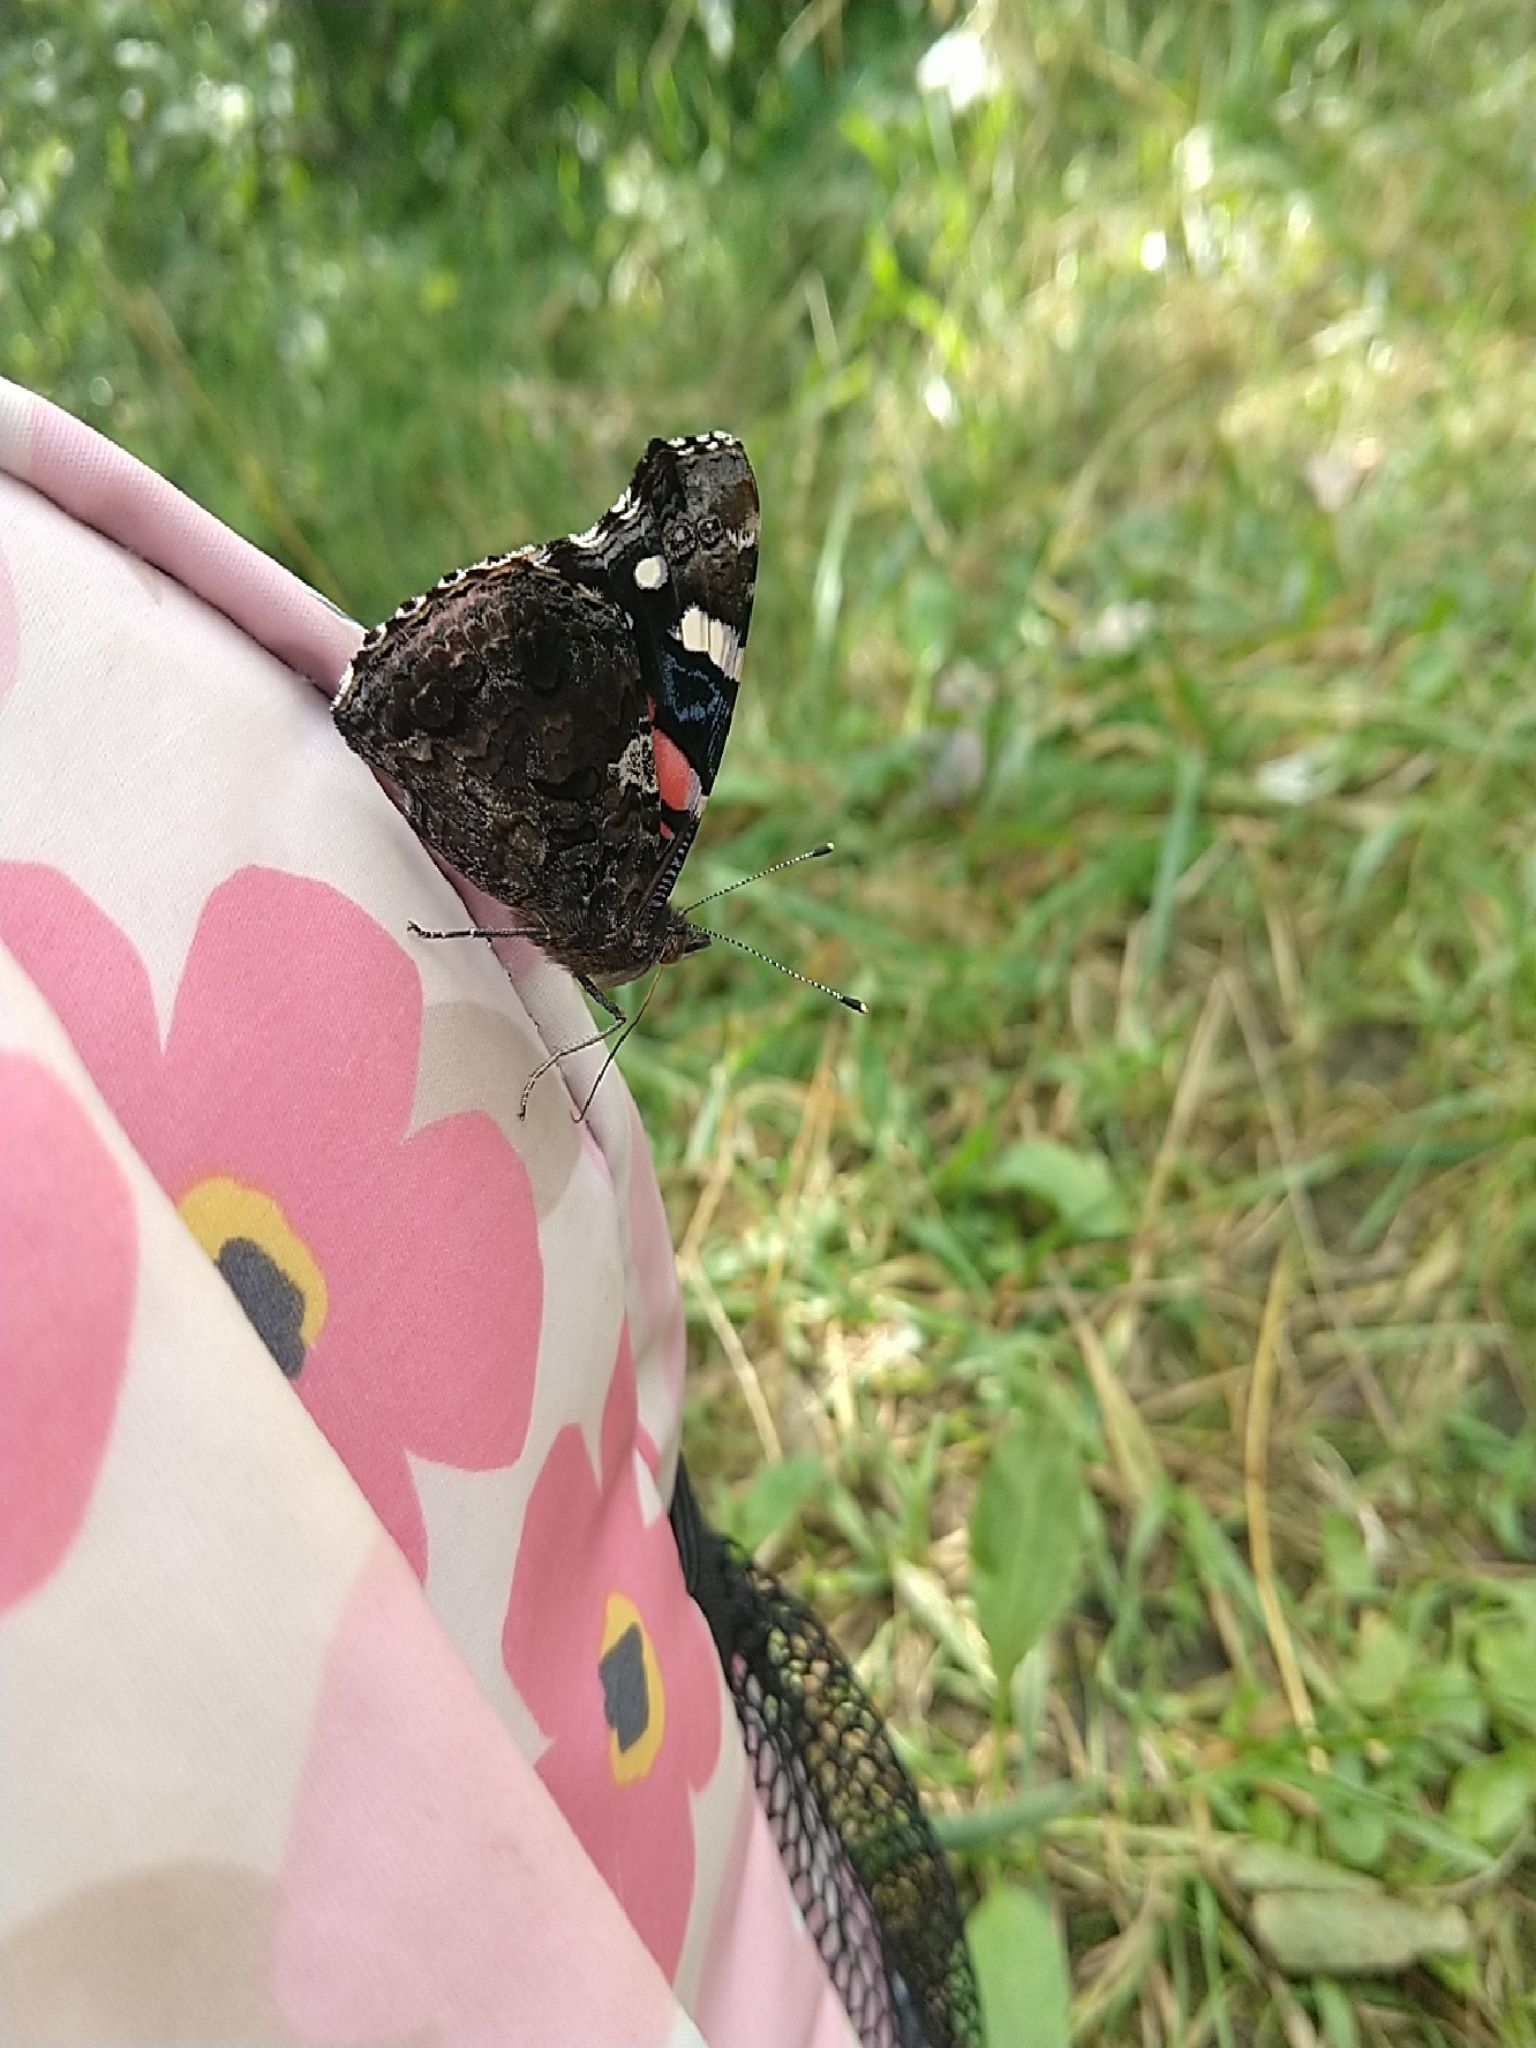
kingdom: Animalia
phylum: Arthropoda
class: Insecta
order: Lepidoptera
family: Nymphalidae
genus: Vanessa
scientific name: Vanessa atalanta
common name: Red admiral
